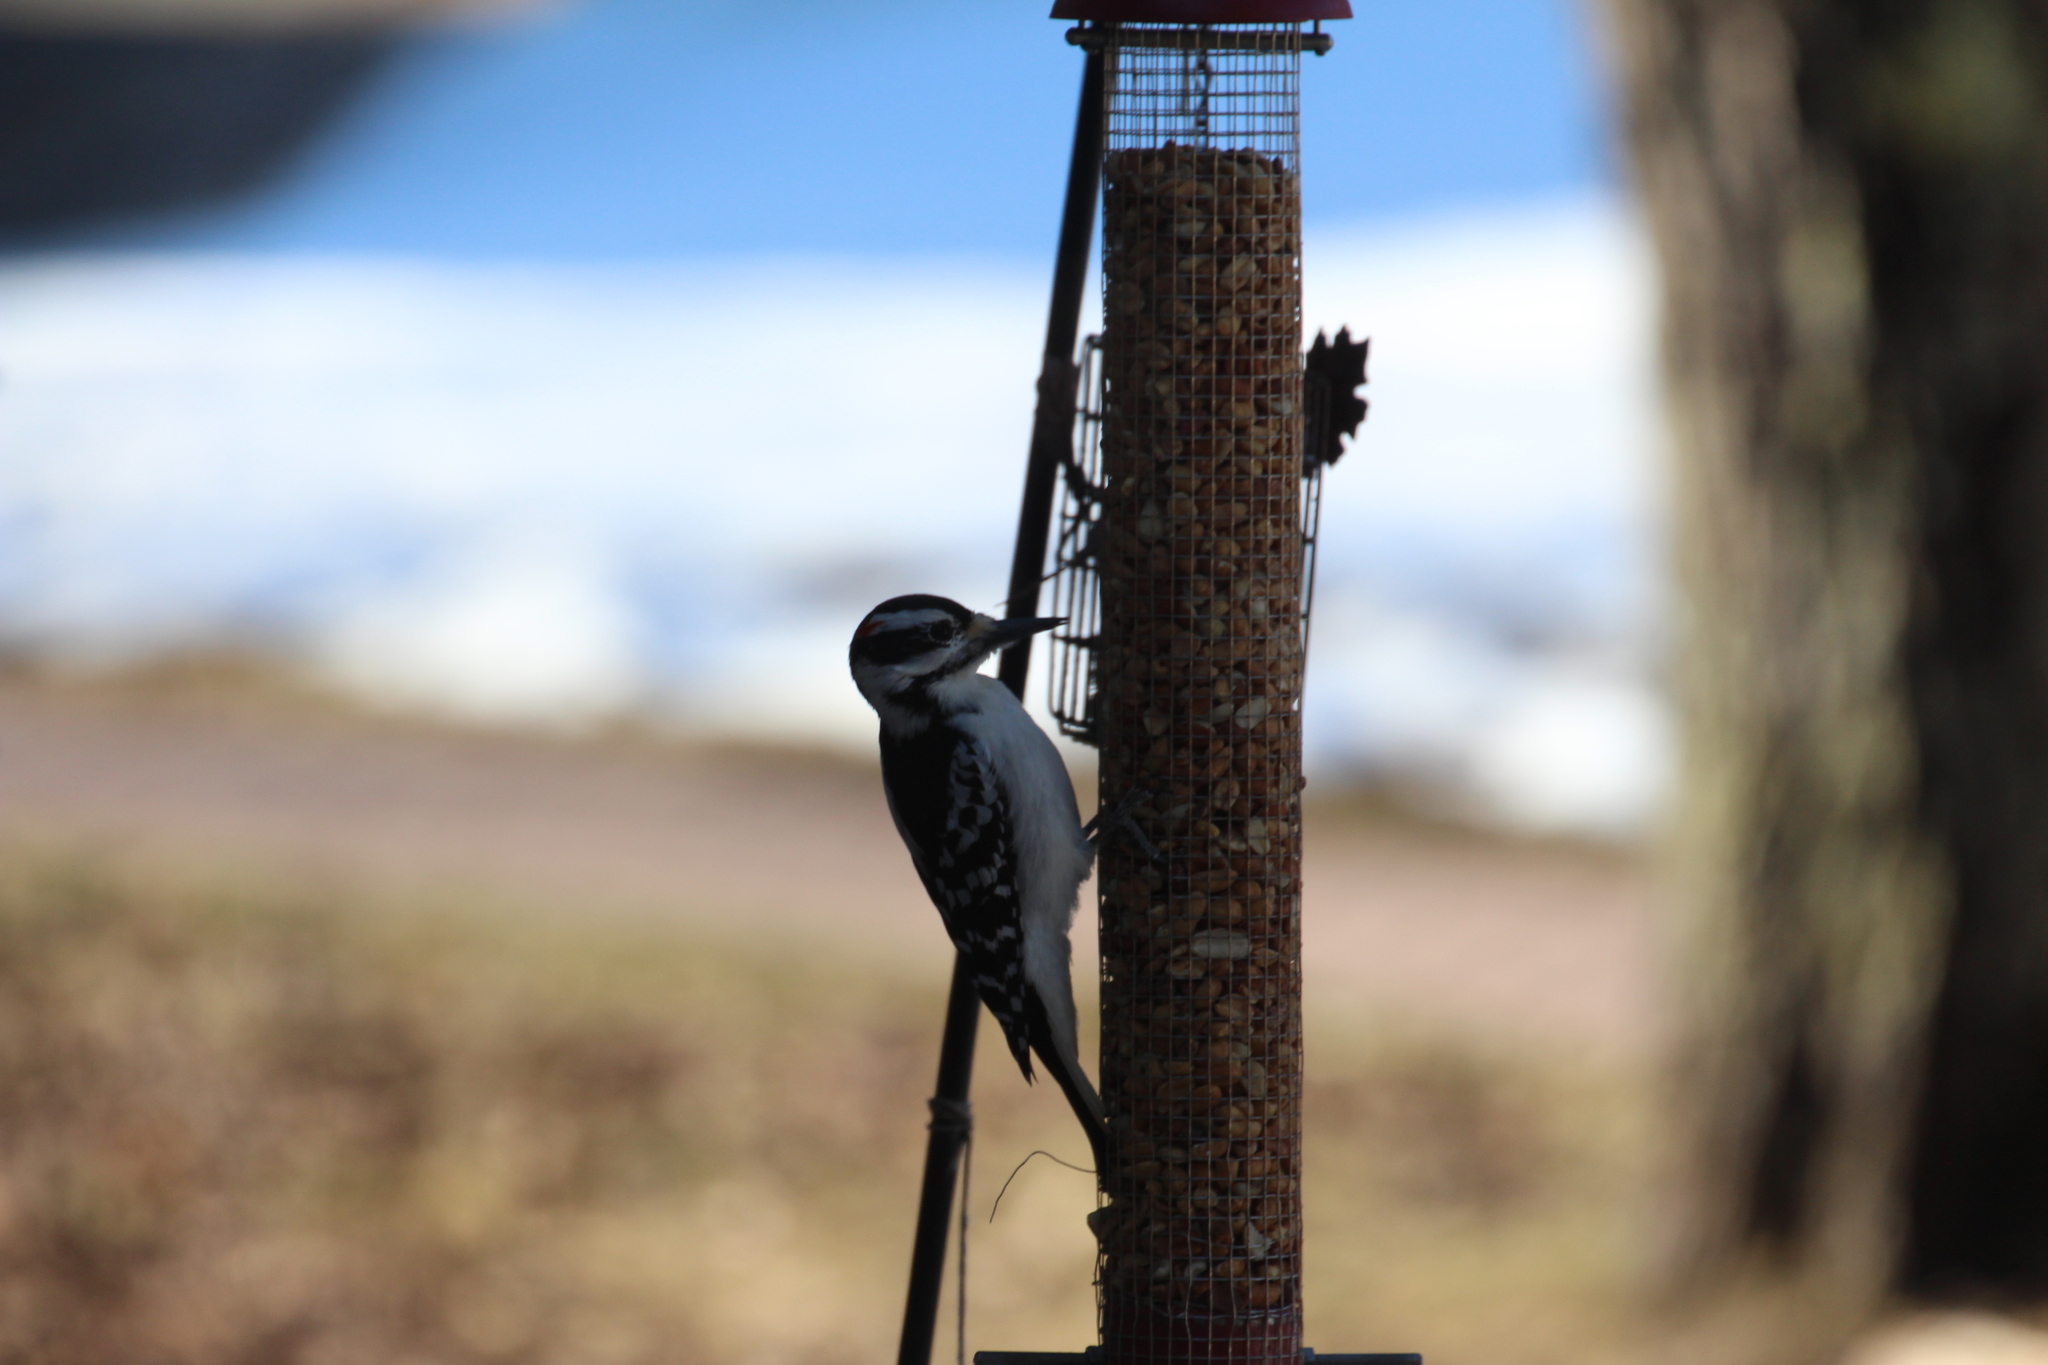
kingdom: Animalia
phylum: Chordata
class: Aves
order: Piciformes
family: Picidae
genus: Leuconotopicus
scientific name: Leuconotopicus villosus
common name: Hairy woodpecker
